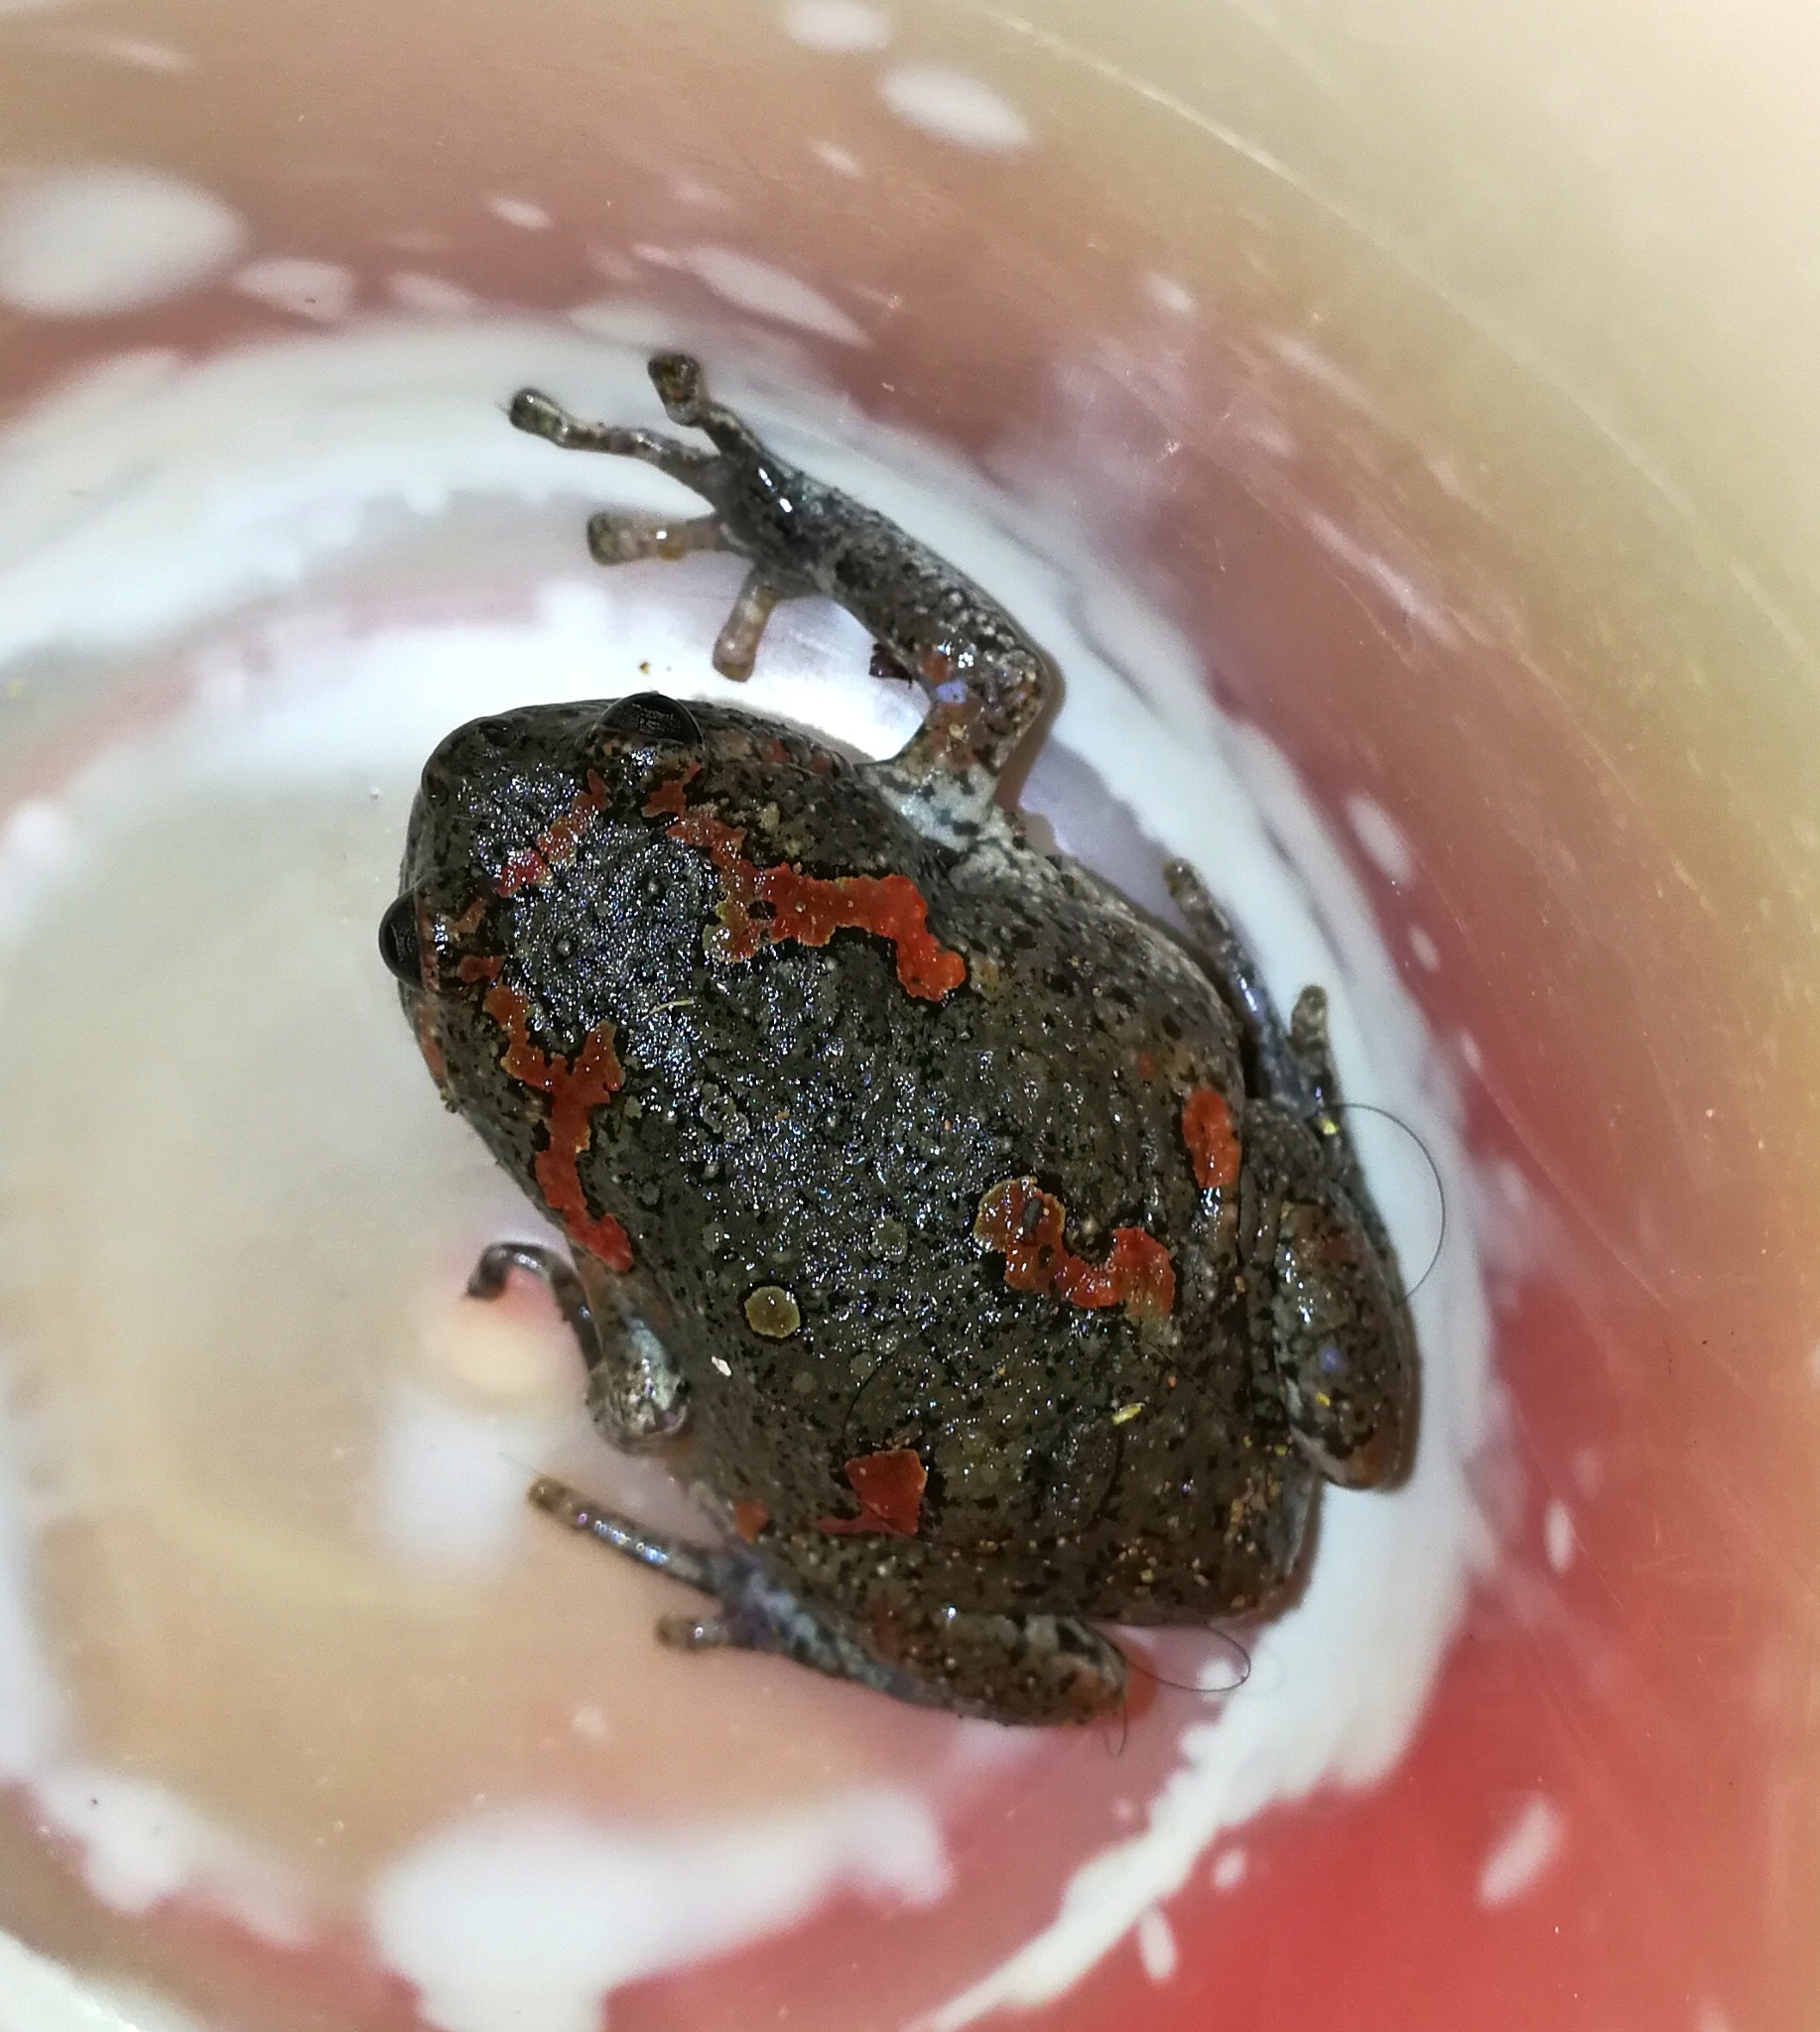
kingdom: Animalia
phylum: Chordata
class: Amphibia
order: Anura
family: Microhylidae
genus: Uperodon
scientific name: Uperodon taprobanicus
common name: Ceylon kaloula
